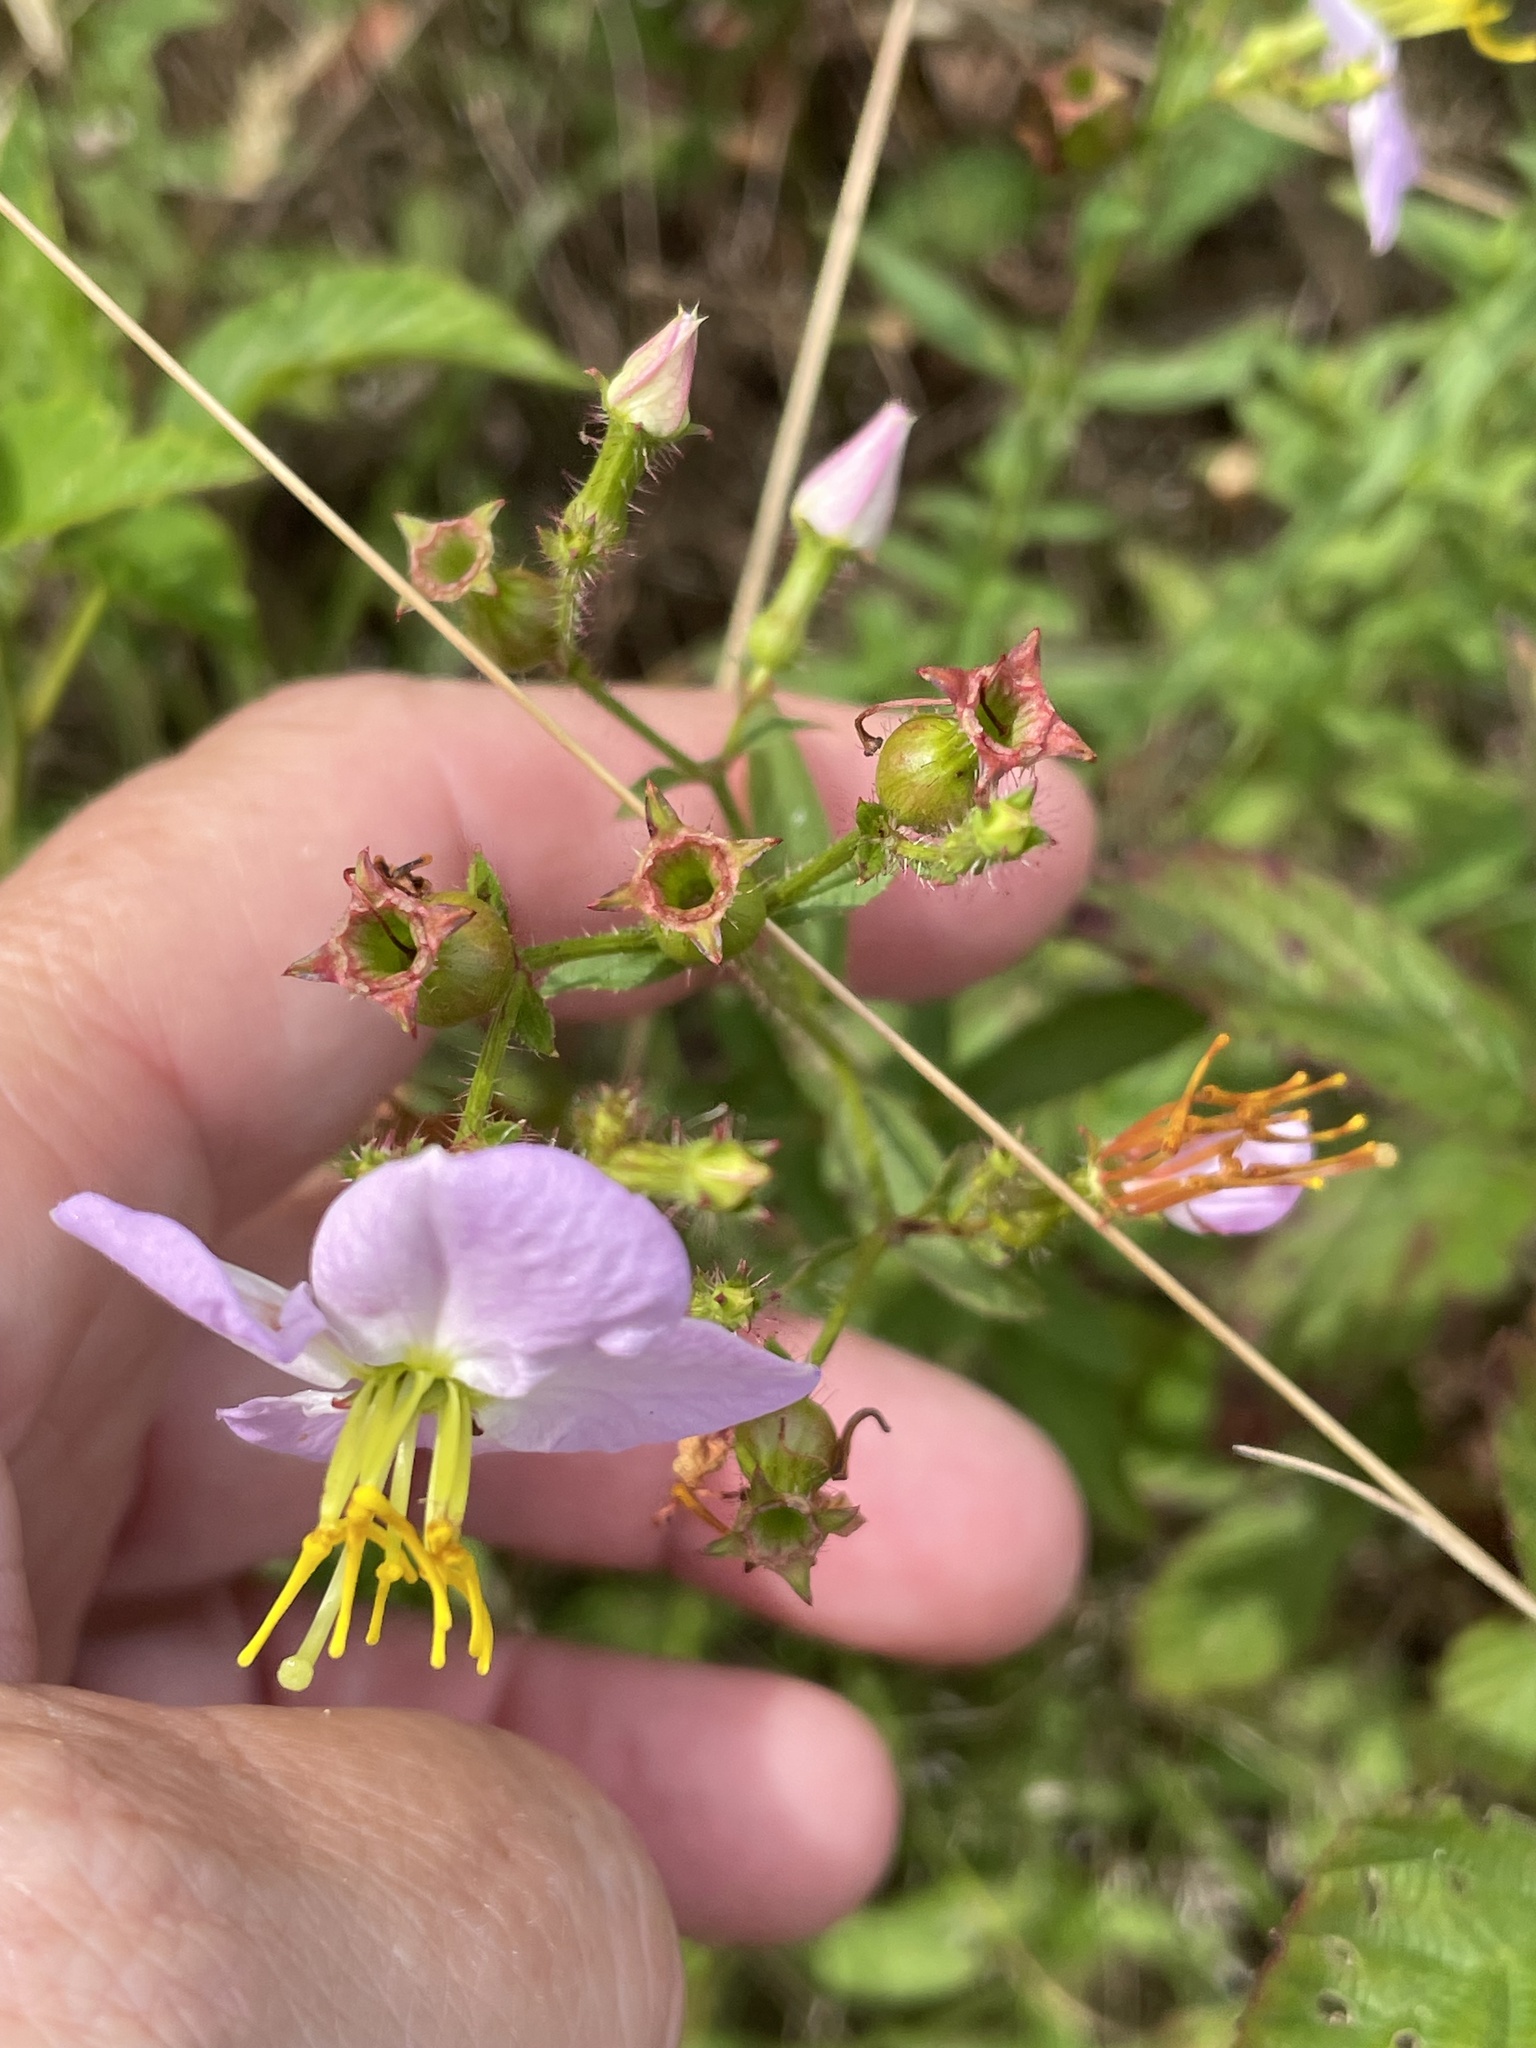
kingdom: Plantae
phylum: Tracheophyta
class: Magnoliopsida
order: Myrtales
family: Melastomataceae
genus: Rhexia
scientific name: Rhexia mariana
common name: Dull meadow-pitcher
